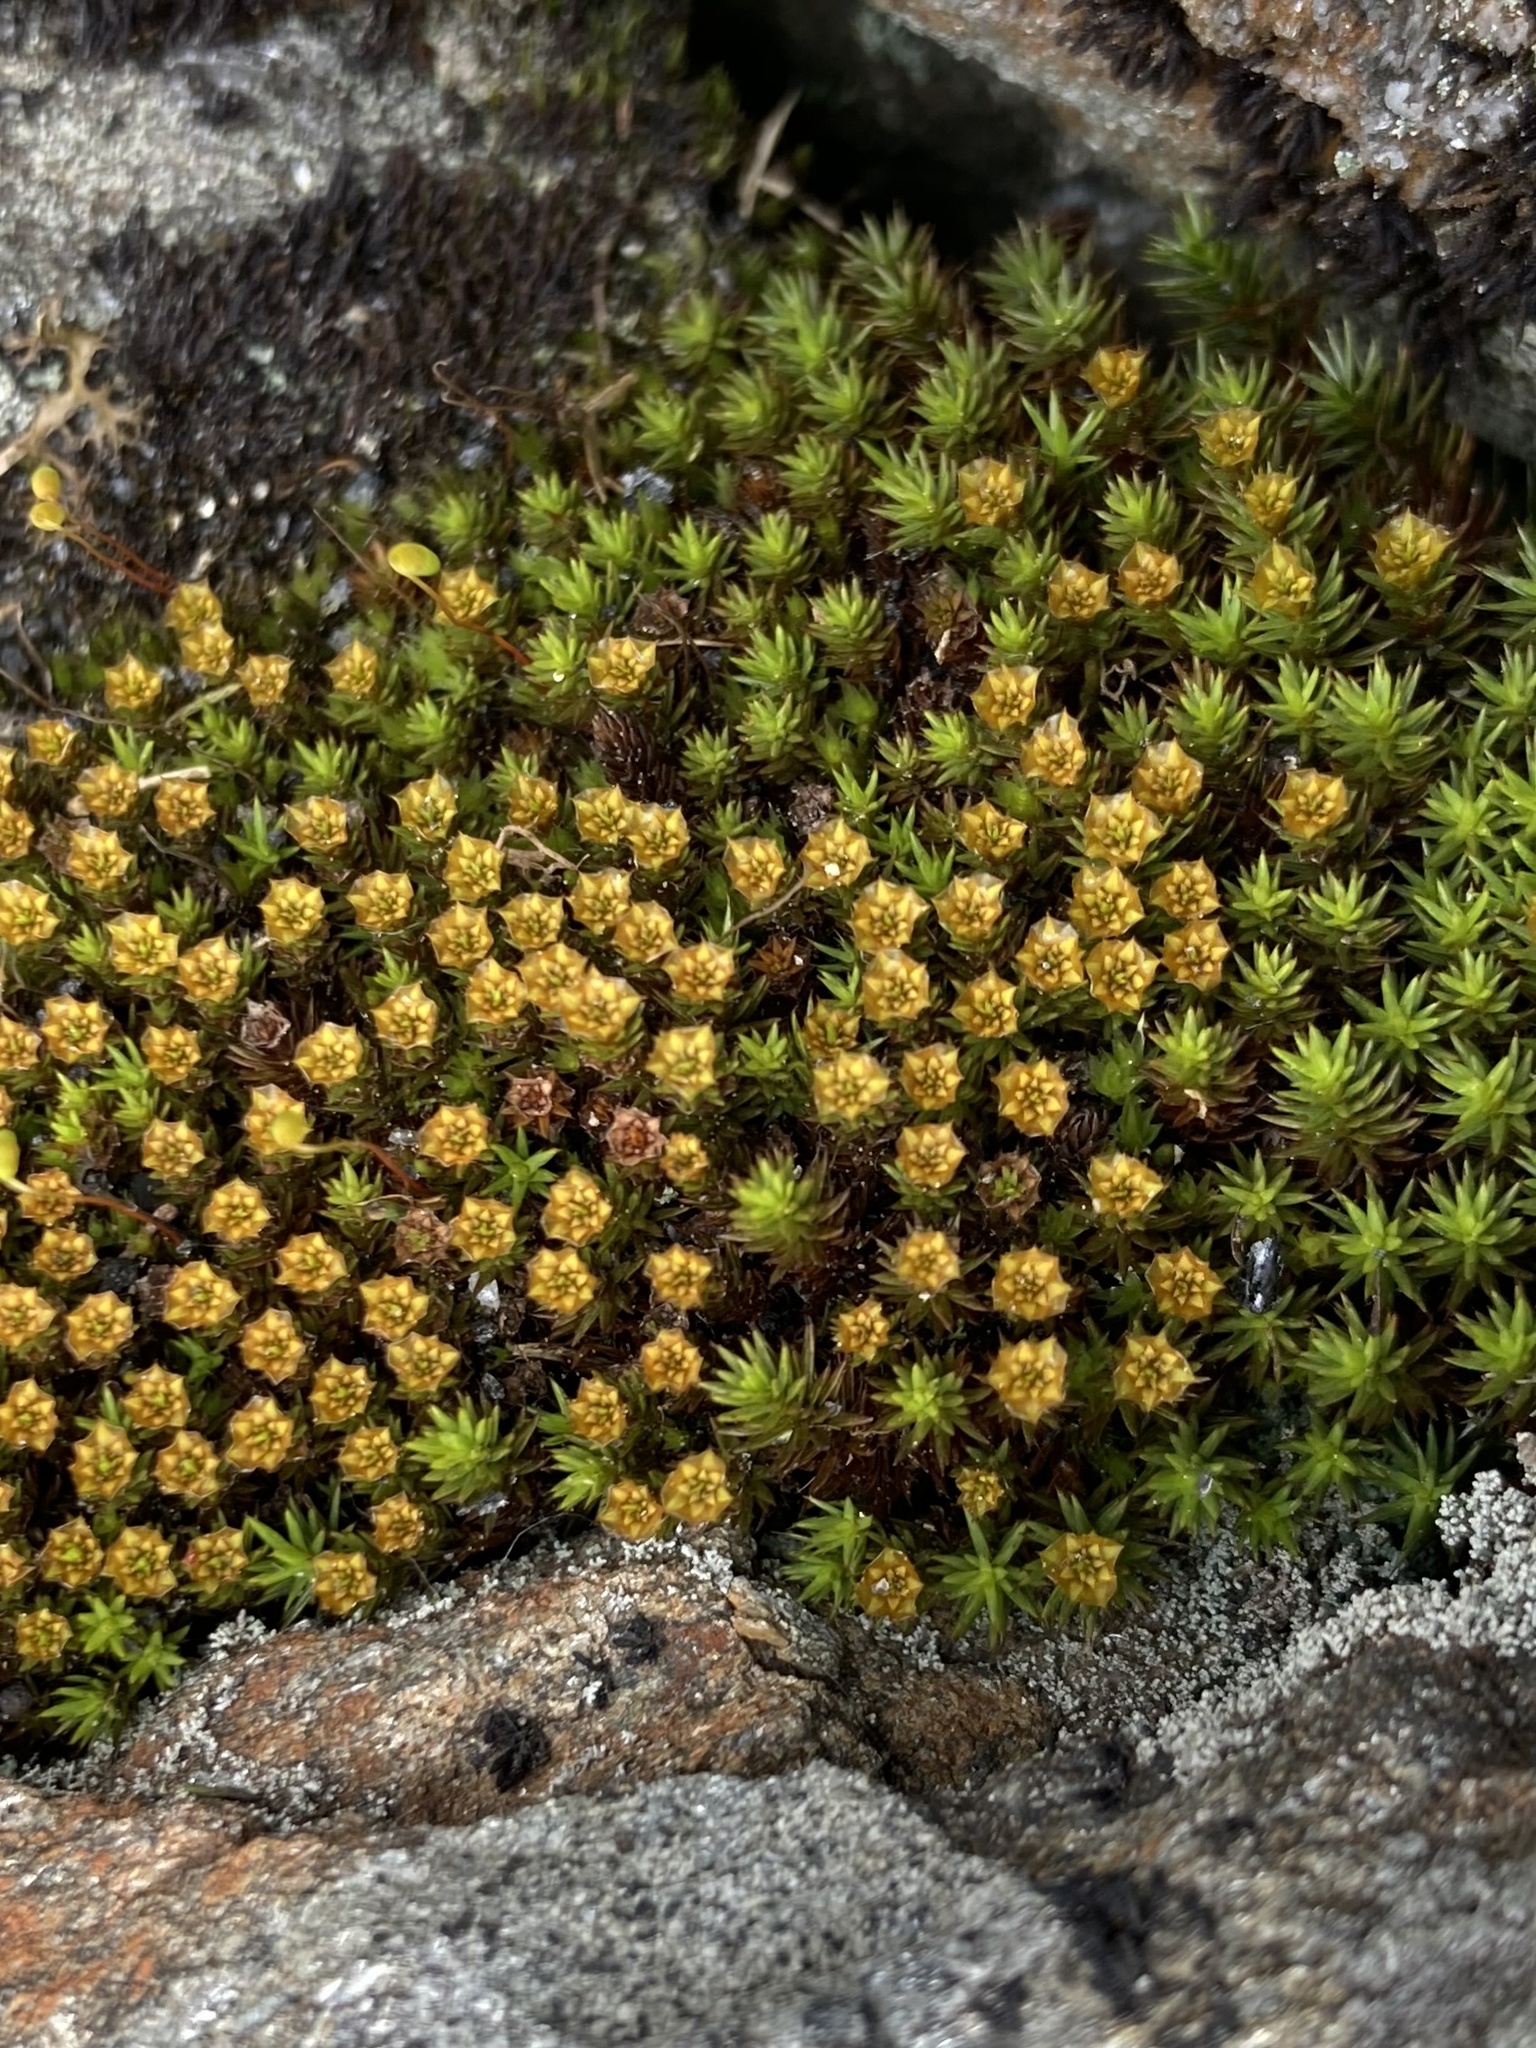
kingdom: Plantae
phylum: Bryophyta
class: Polytrichopsida
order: Polytrichales
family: Polytrichaceae
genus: Polytrichum
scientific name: Polytrichum piliferum
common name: Bristly haircap
